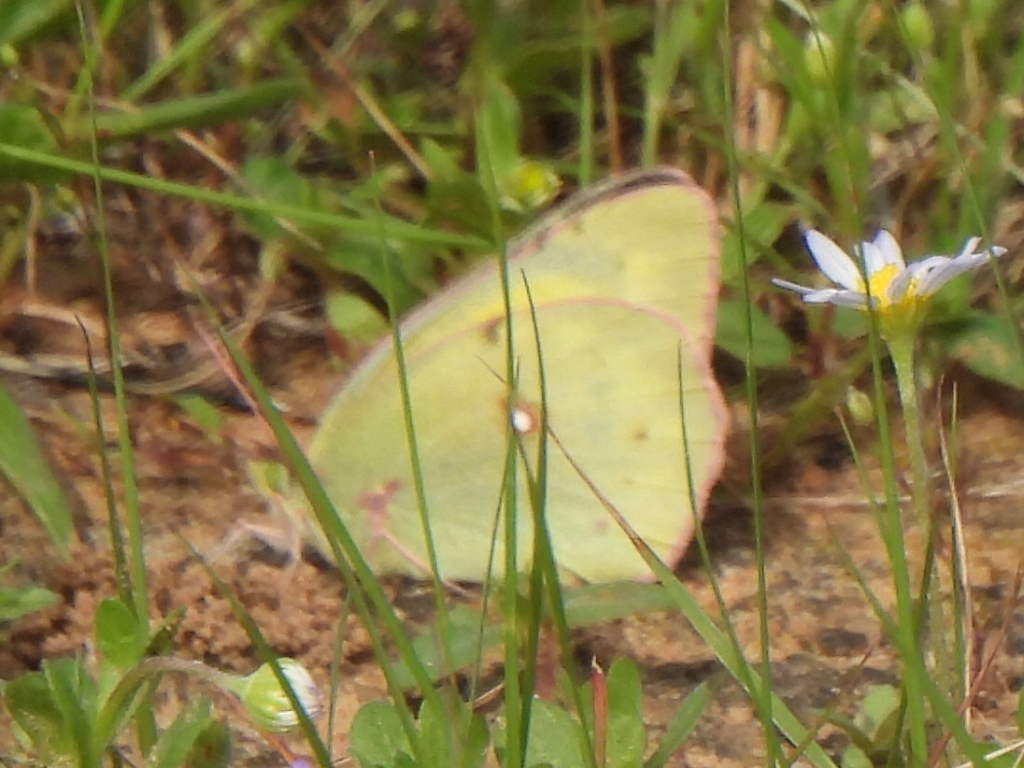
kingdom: Animalia
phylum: Arthropoda
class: Insecta
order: Lepidoptera
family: Pieridae
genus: Colias
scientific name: Colias eurytheme
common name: Alfalfa butterfly
